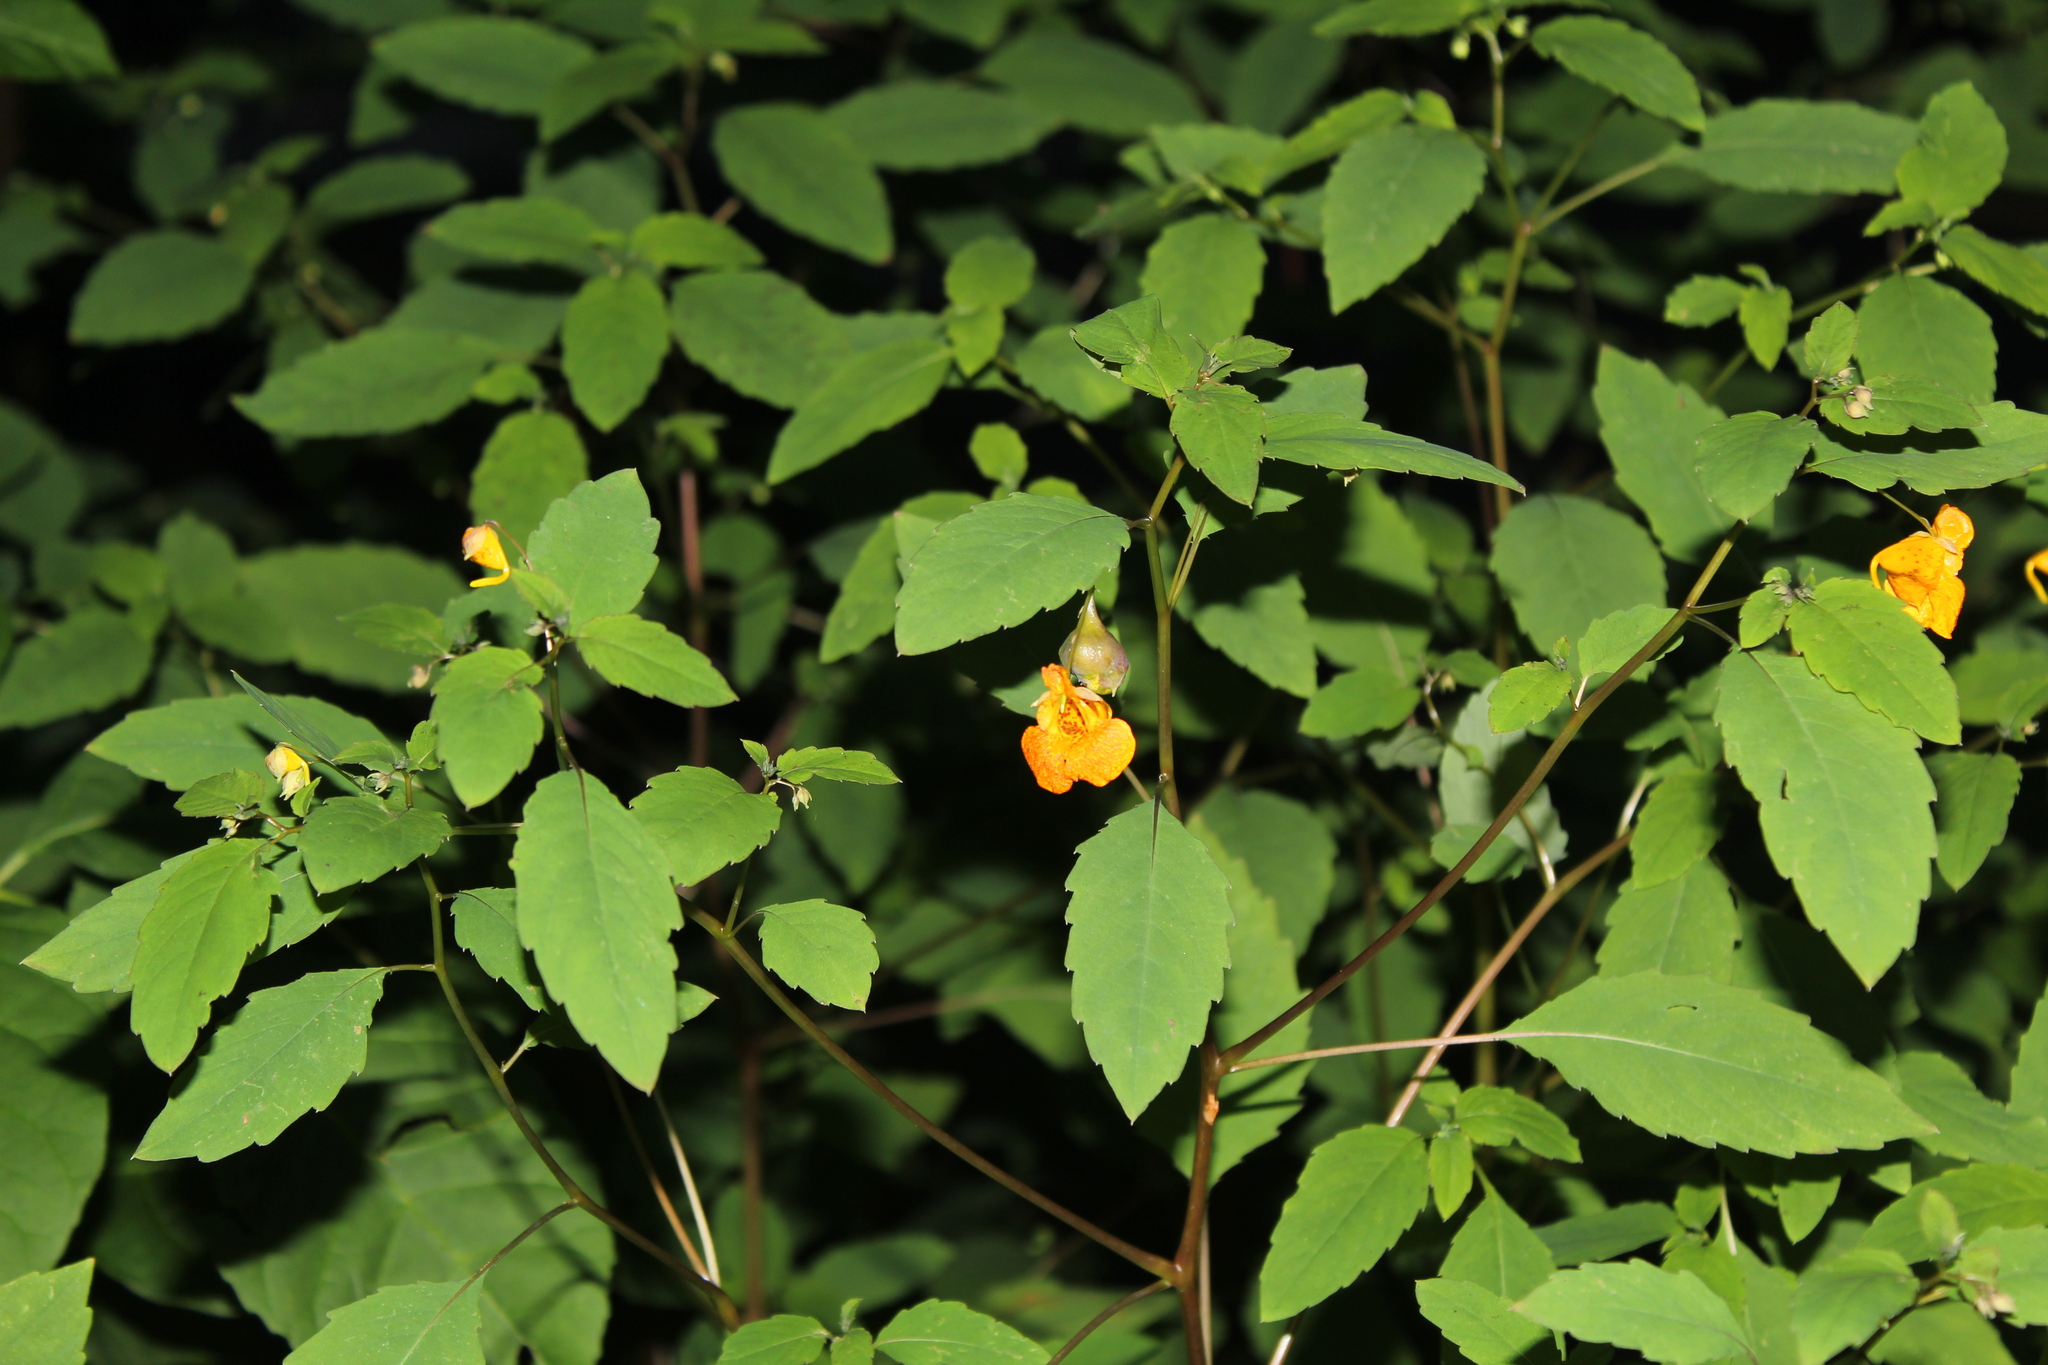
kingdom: Plantae
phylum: Tracheophyta
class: Magnoliopsida
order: Ericales
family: Balsaminaceae
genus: Impatiens
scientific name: Impatiens capensis
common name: Orange balsam
